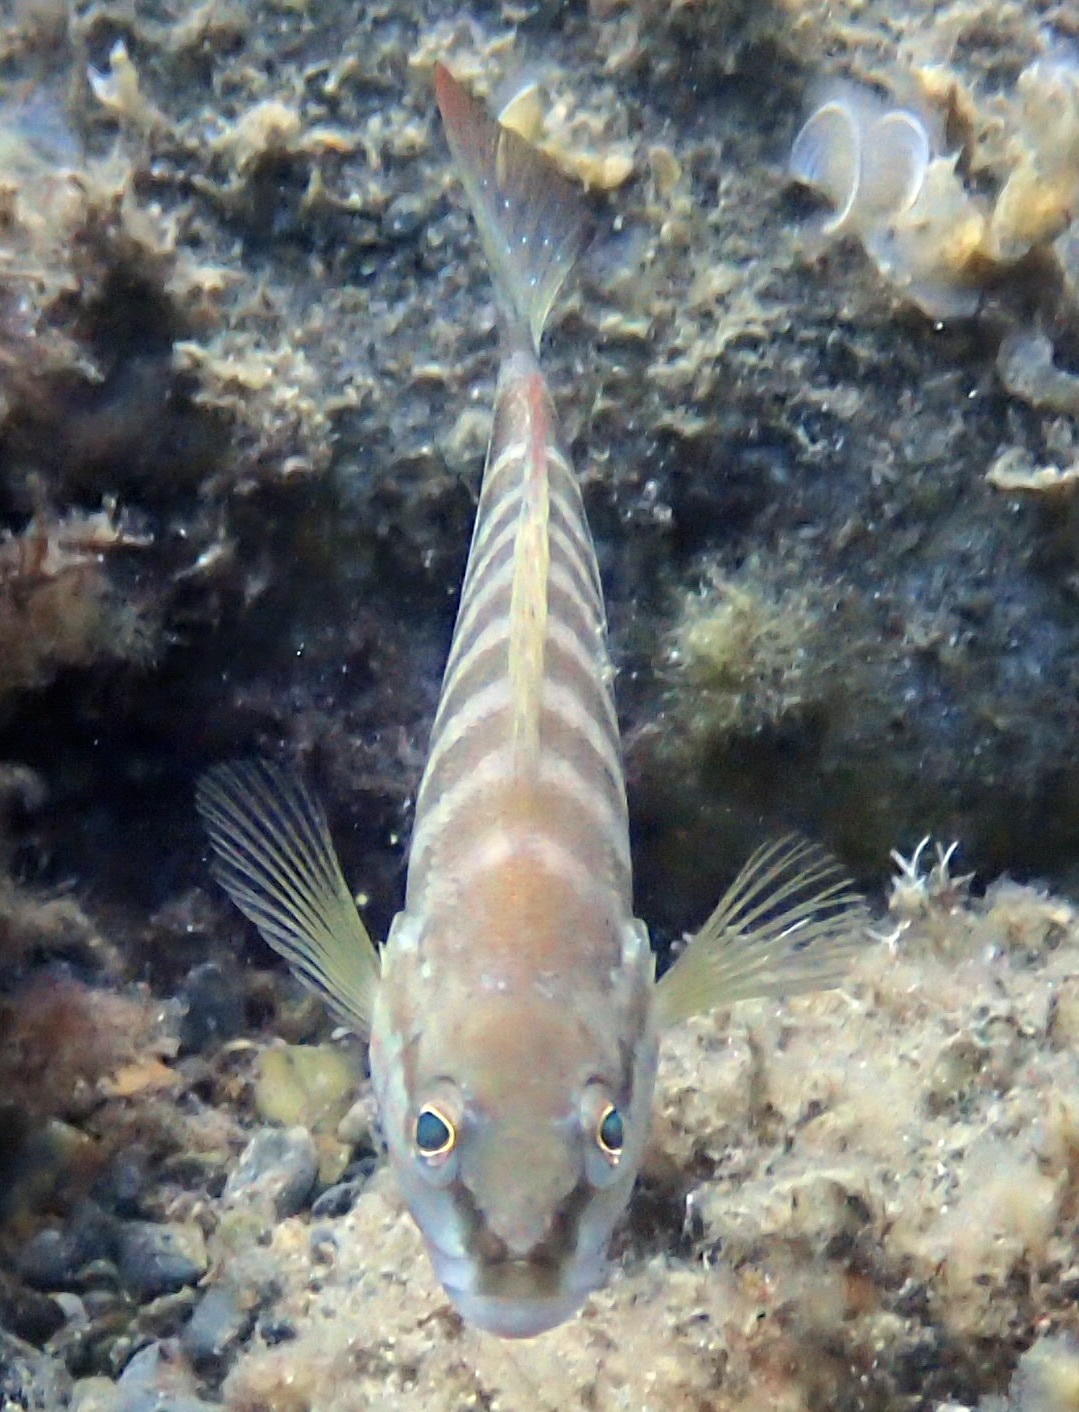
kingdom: Animalia
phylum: Chordata
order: Perciformes
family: Serranidae
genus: Serranus
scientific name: Serranus cabrilla
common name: Comber
